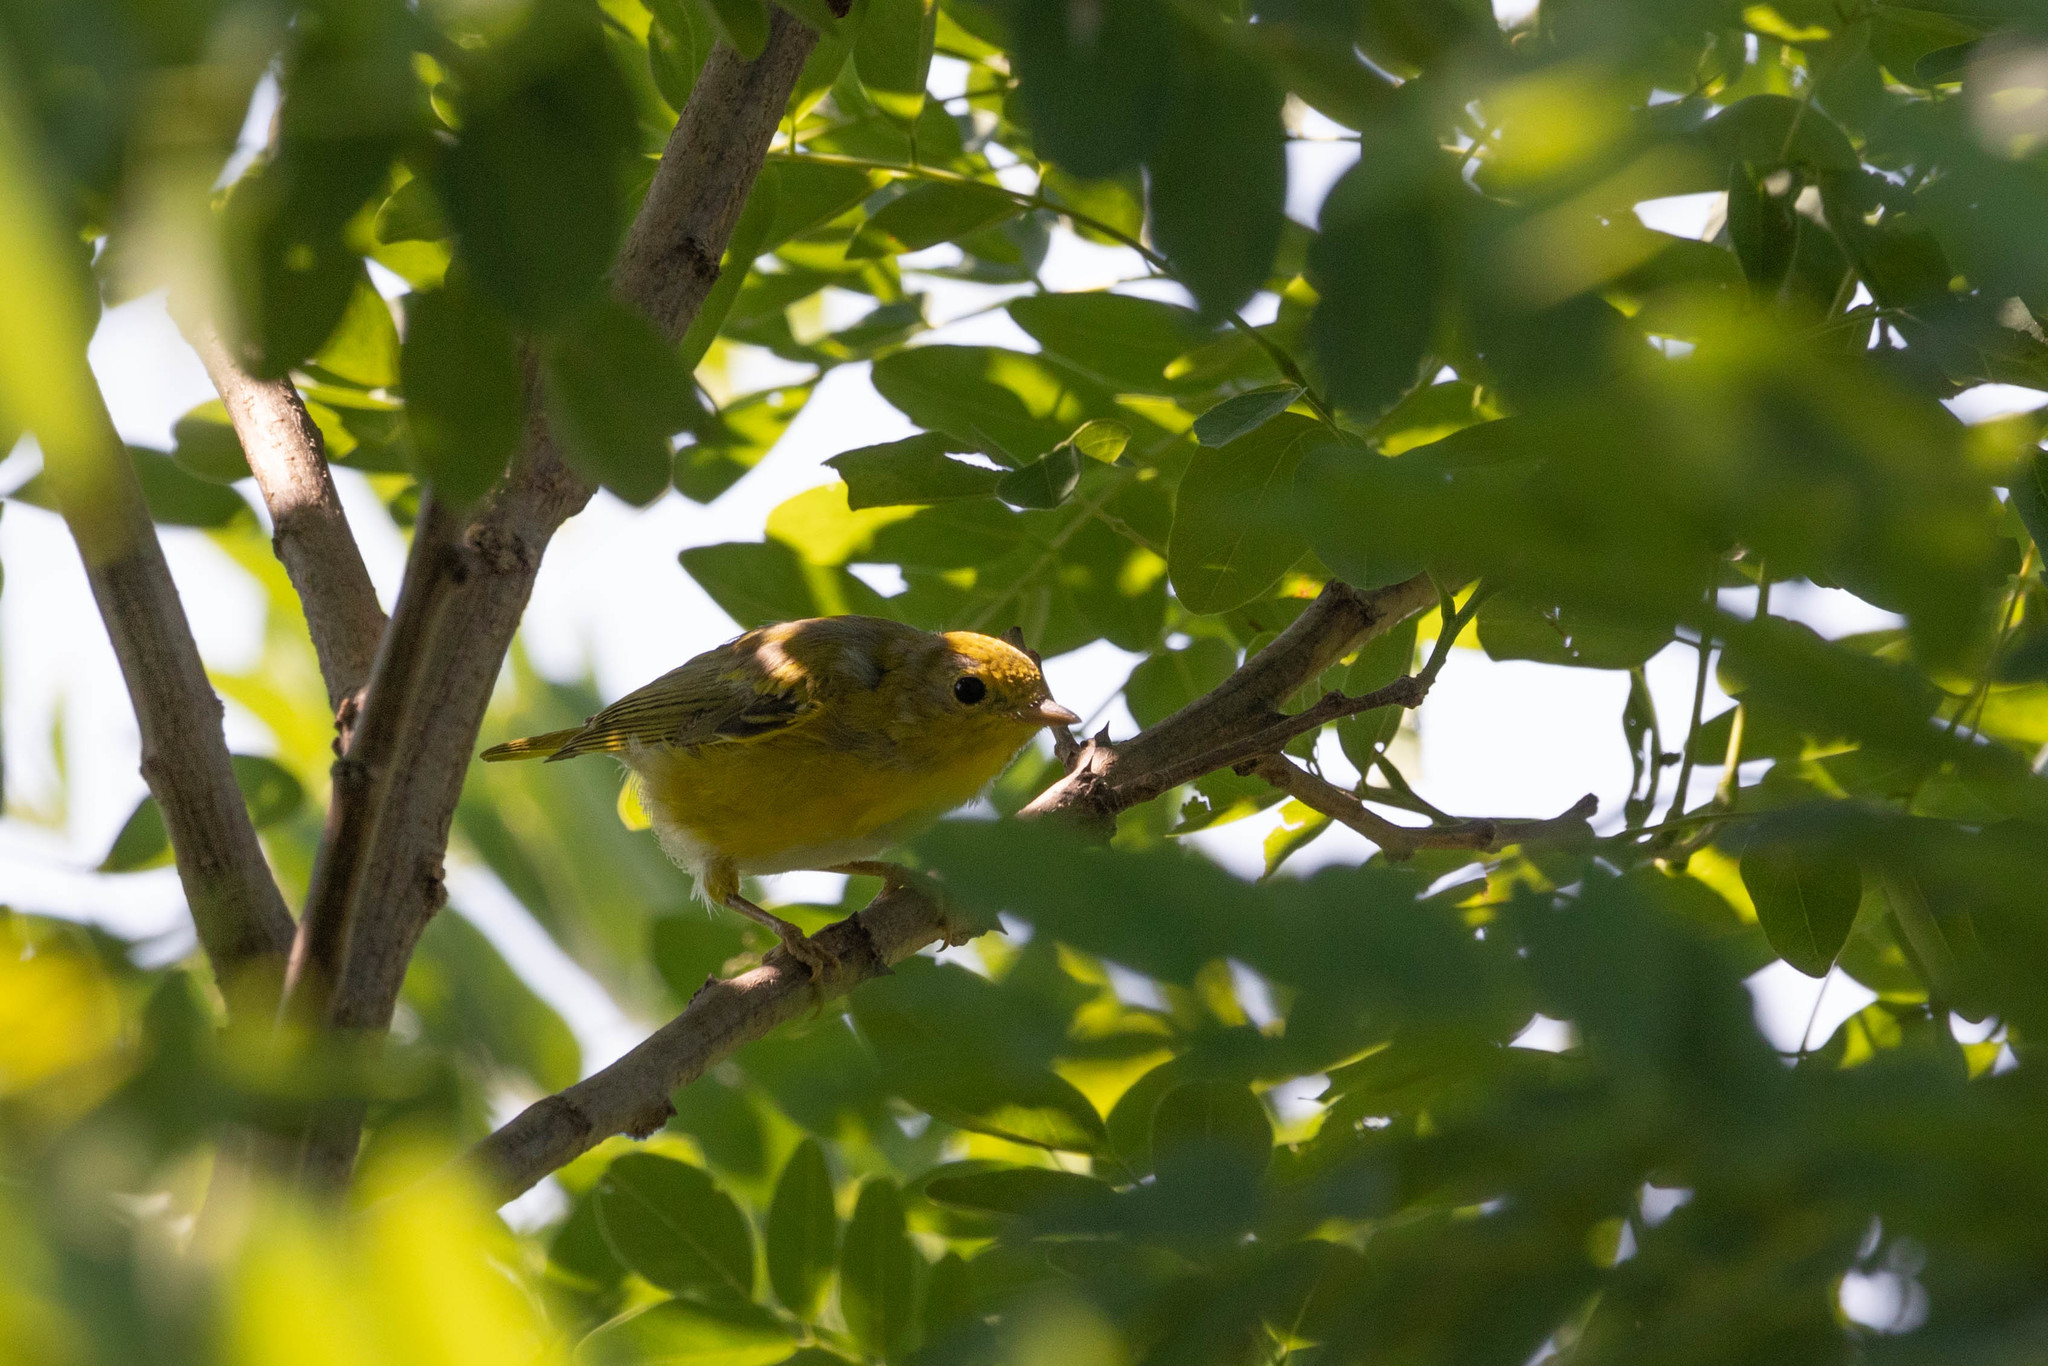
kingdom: Animalia
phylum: Chordata
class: Aves
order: Passeriformes
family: Parulidae
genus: Setophaga
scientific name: Setophaga petechia
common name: Yellow warbler
